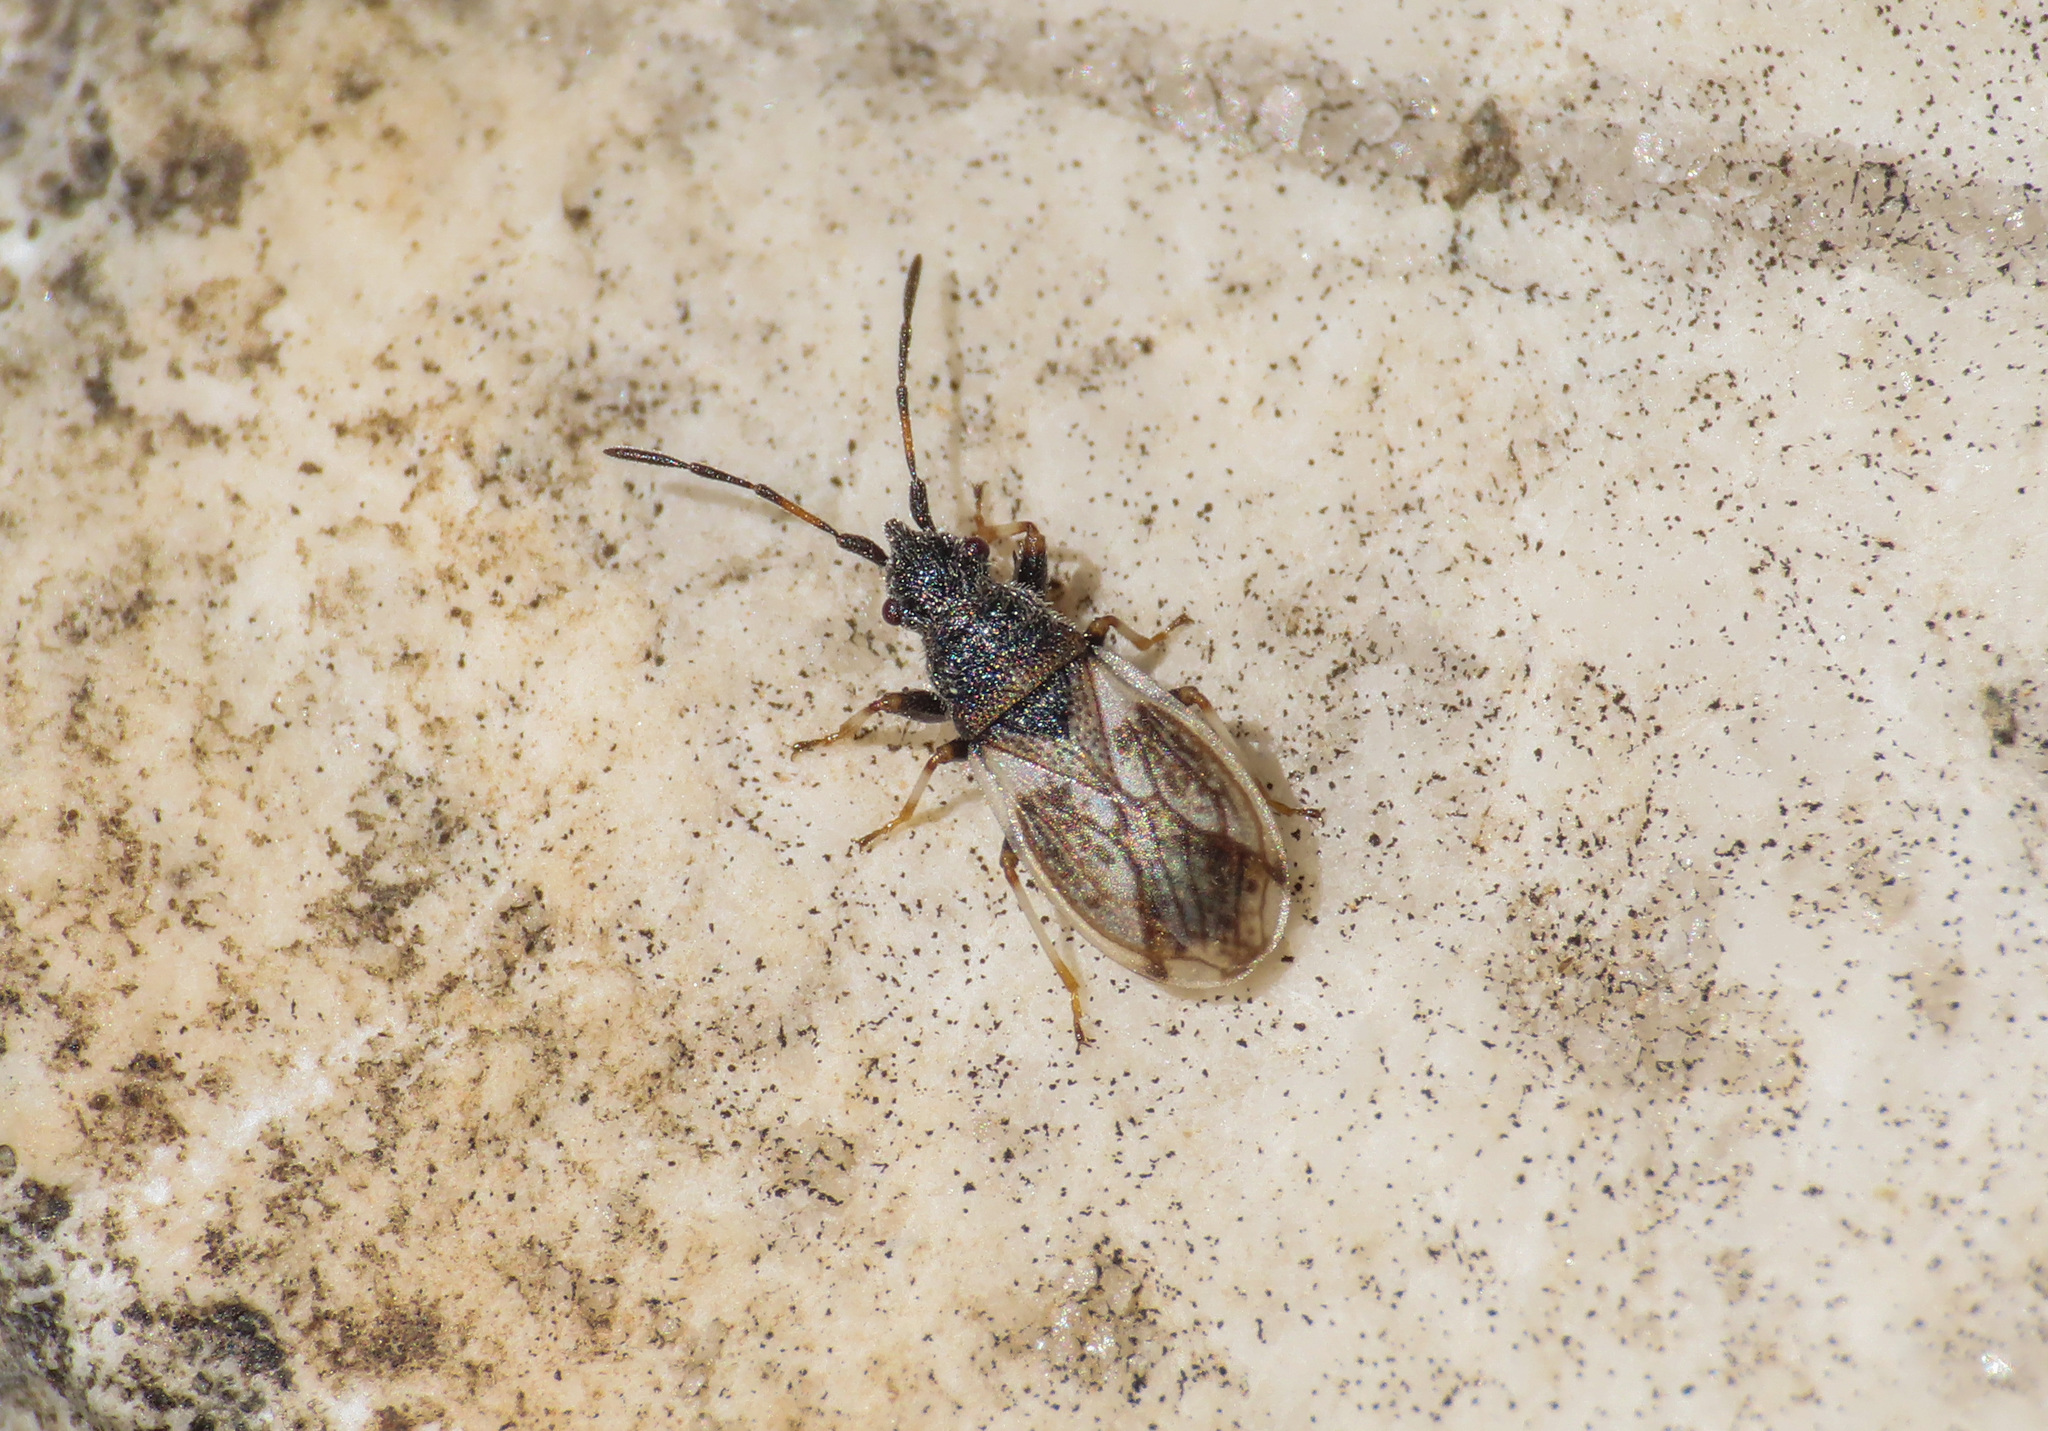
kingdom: Animalia
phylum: Arthropoda
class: Insecta
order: Hemiptera
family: Oxycarenidae
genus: Macroplax
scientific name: Macroplax preyssleri
